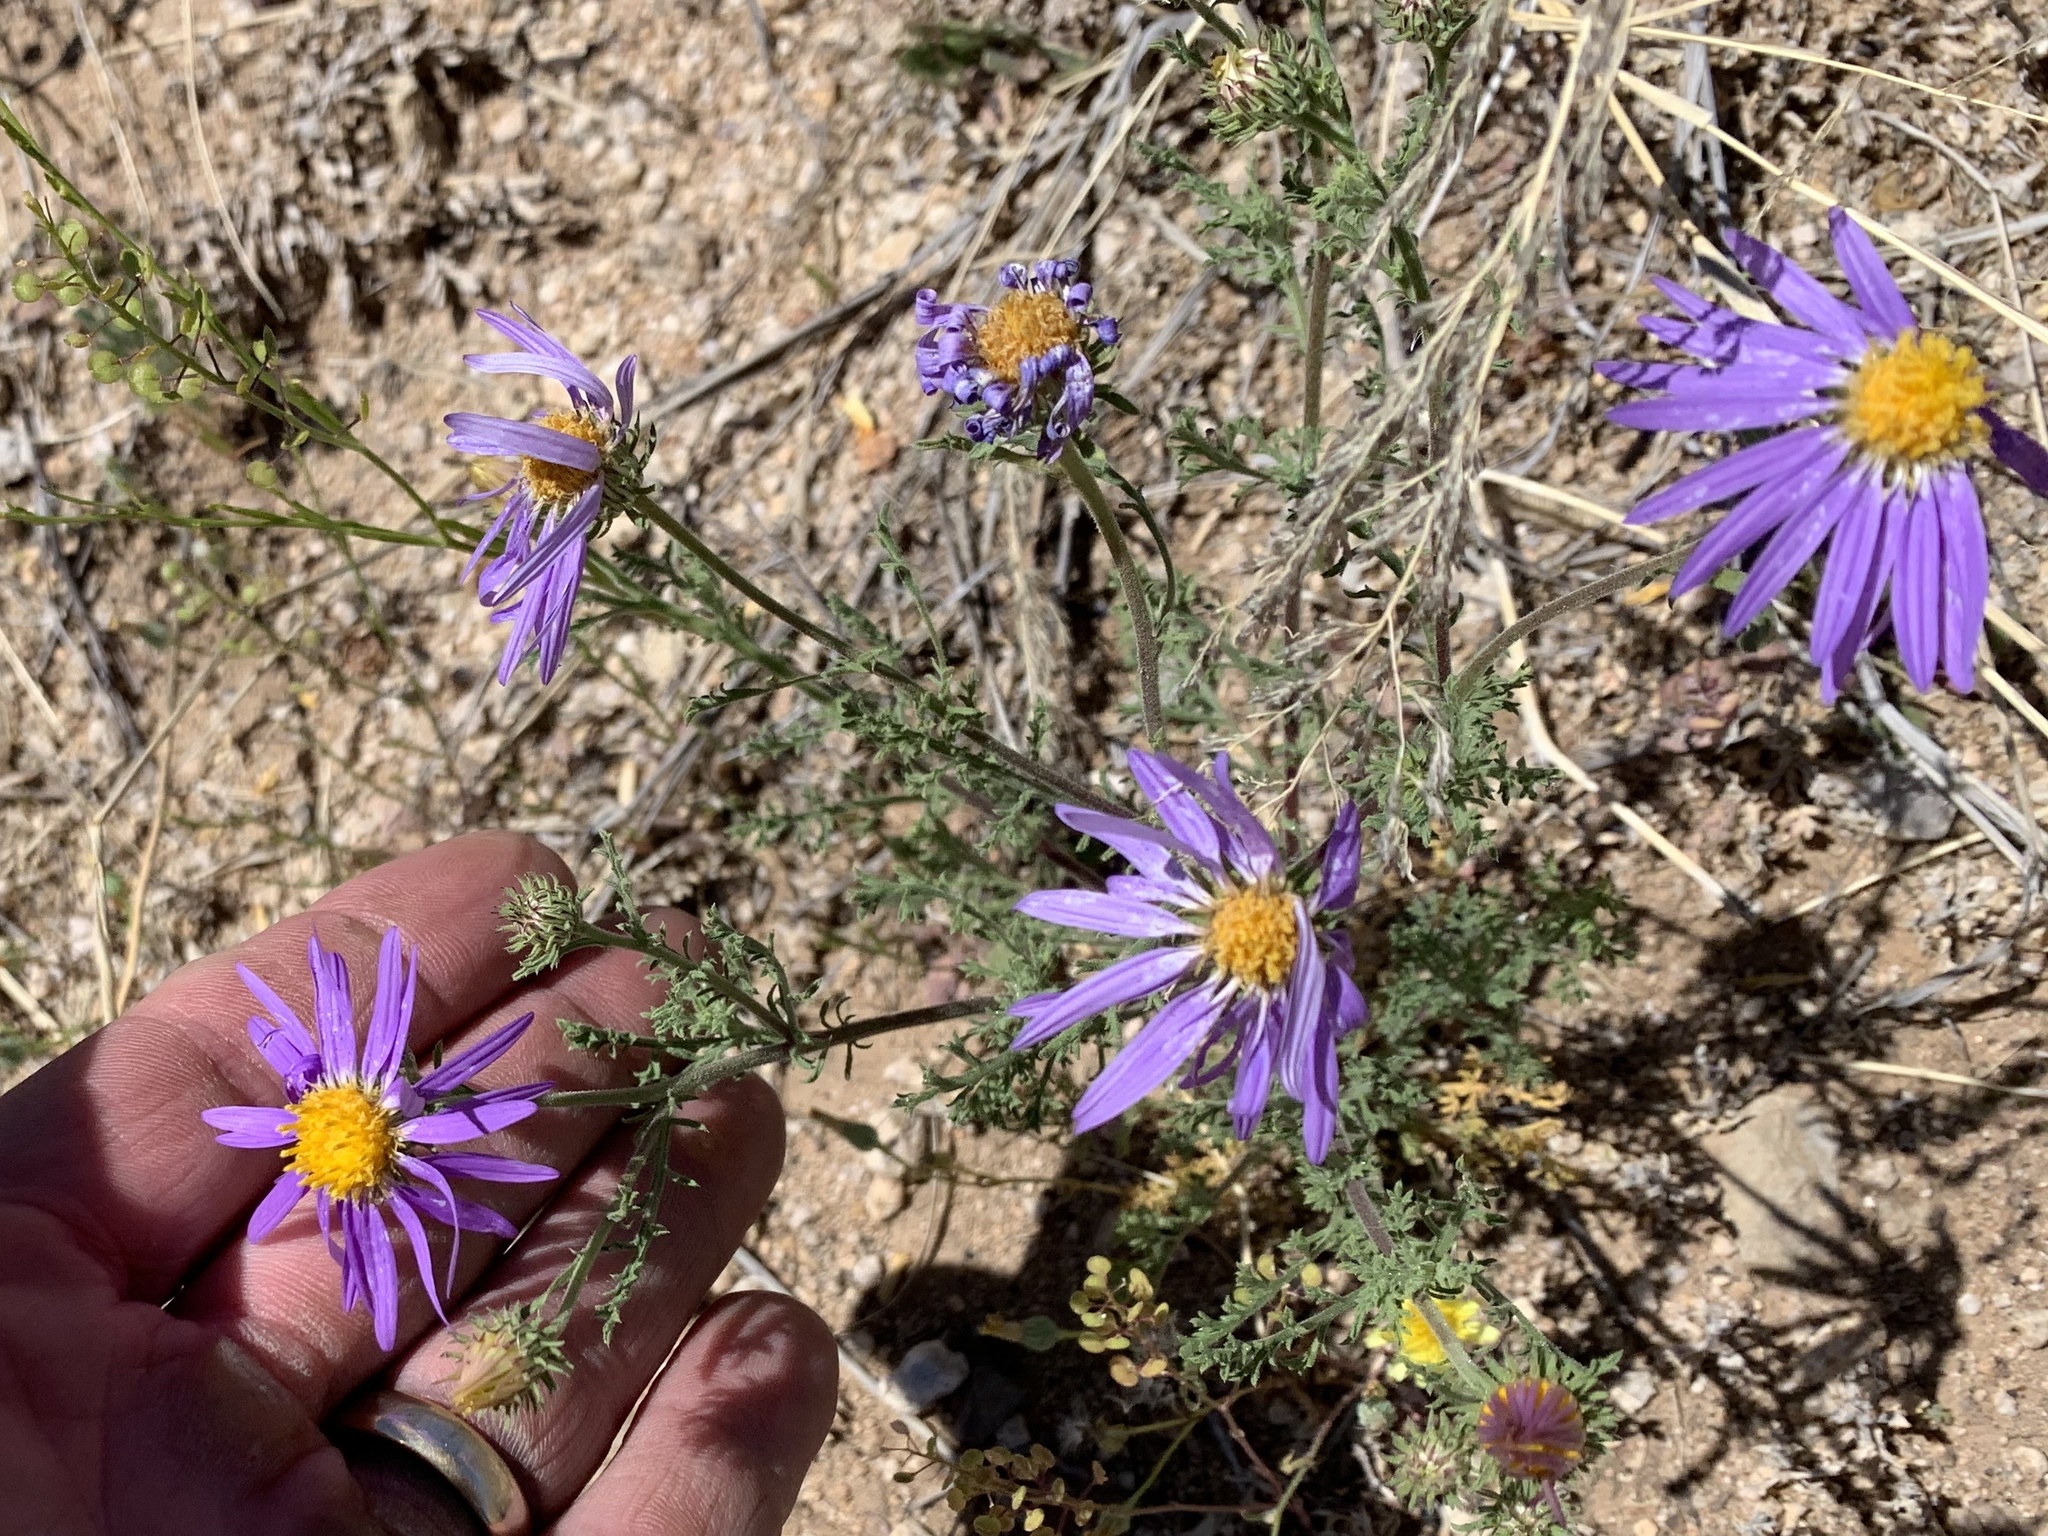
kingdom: Plantae
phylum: Tracheophyta
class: Magnoliopsida
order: Asterales
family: Asteraceae
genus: Machaeranthera
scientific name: Machaeranthera tanacetifolia
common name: Tansy-aster
